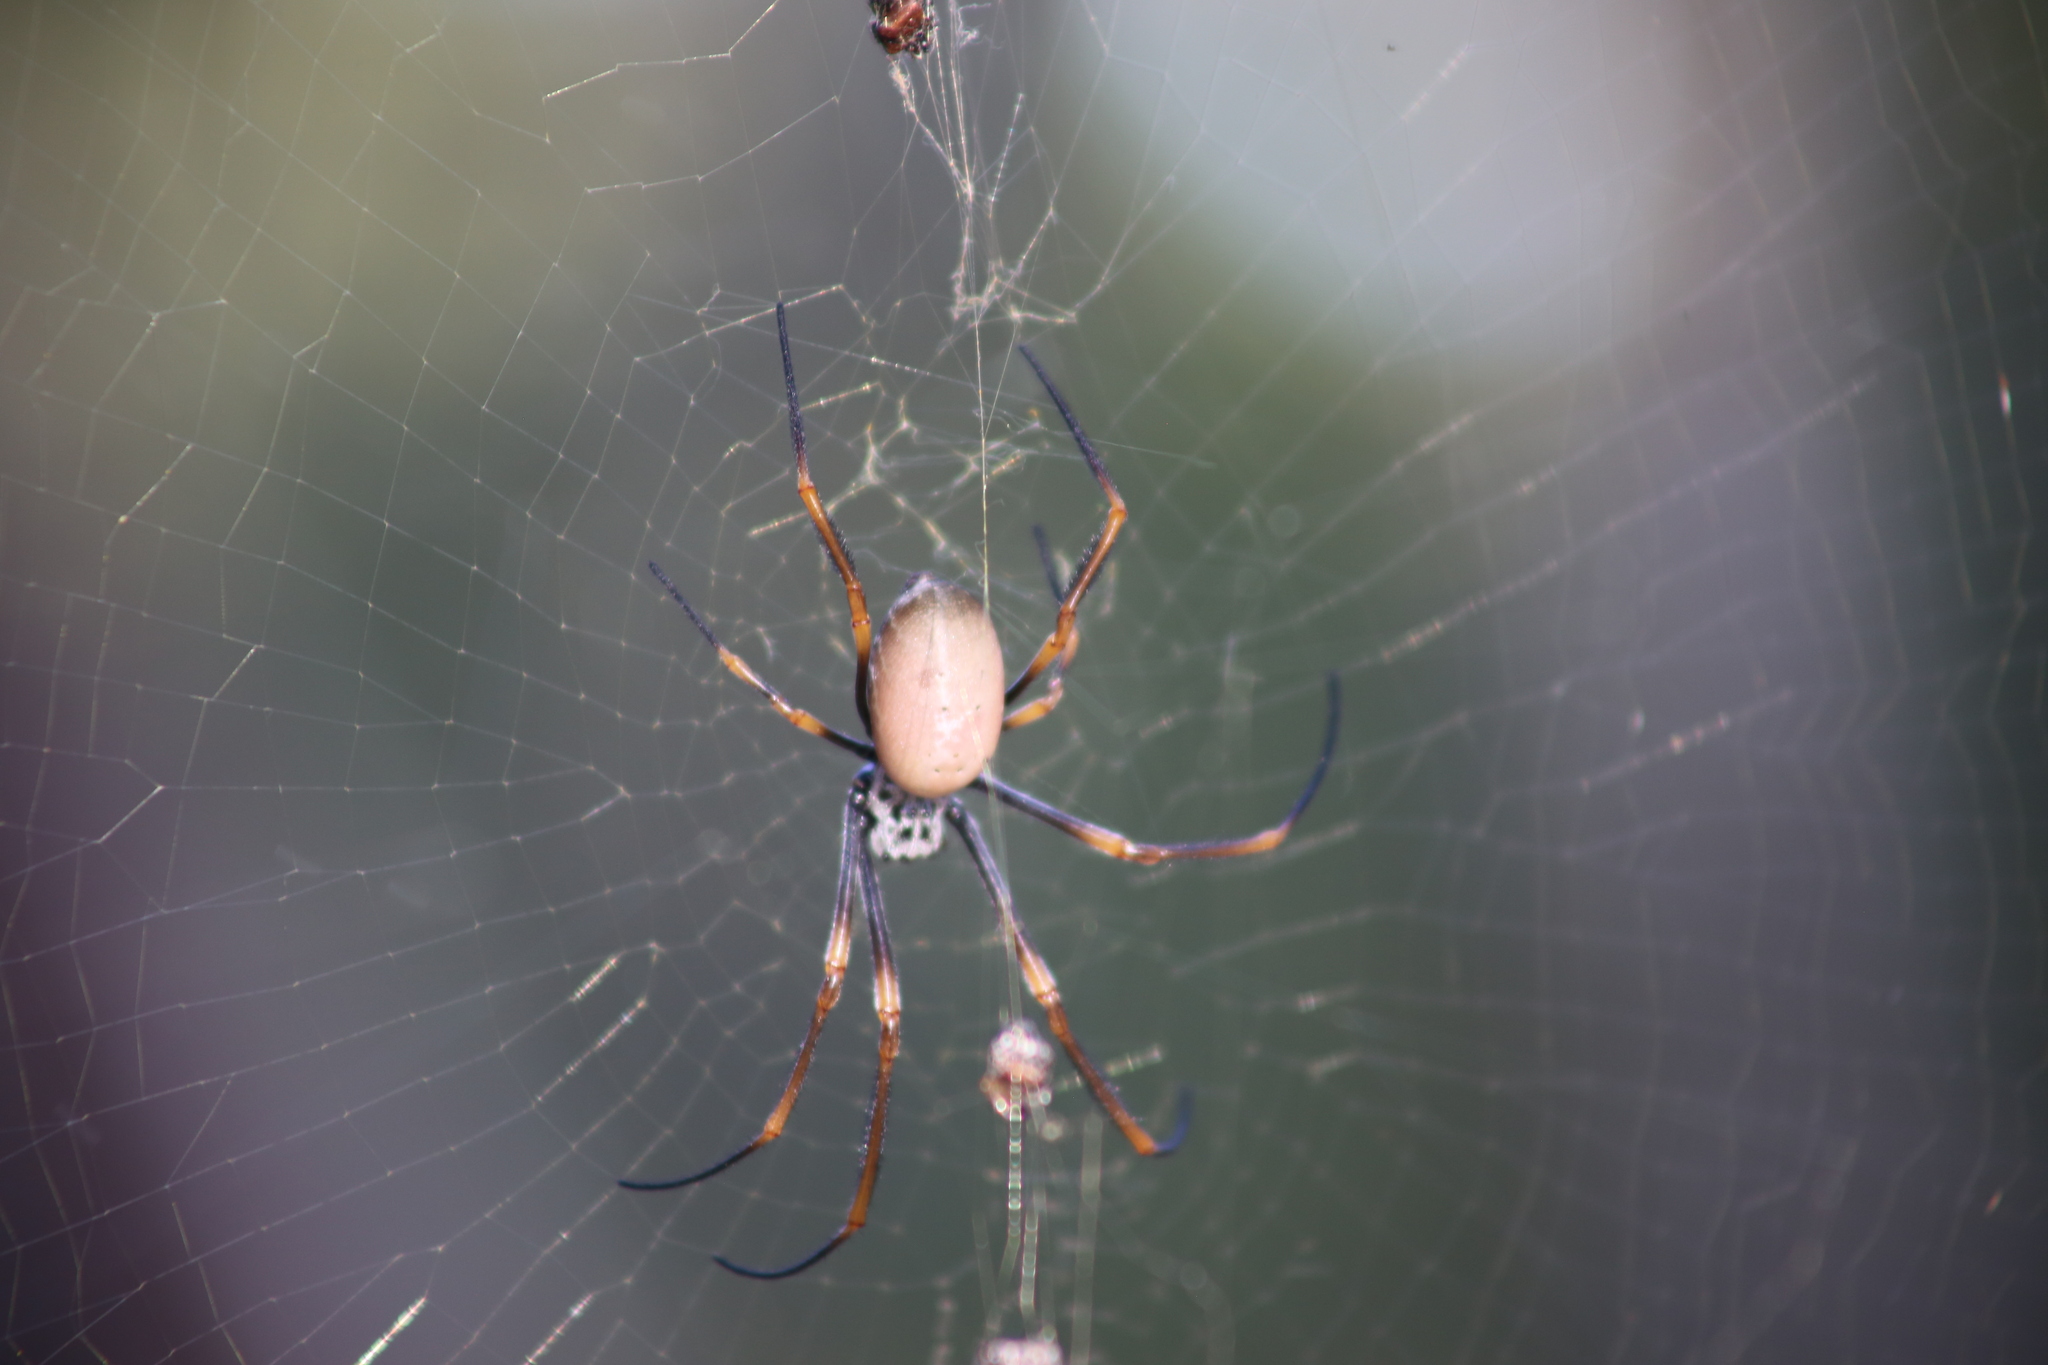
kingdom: Animalia
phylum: Arthropoda
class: Arachnida
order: Araneae
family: Araneidae
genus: Trichonephila
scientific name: Trichonephila plumipes
